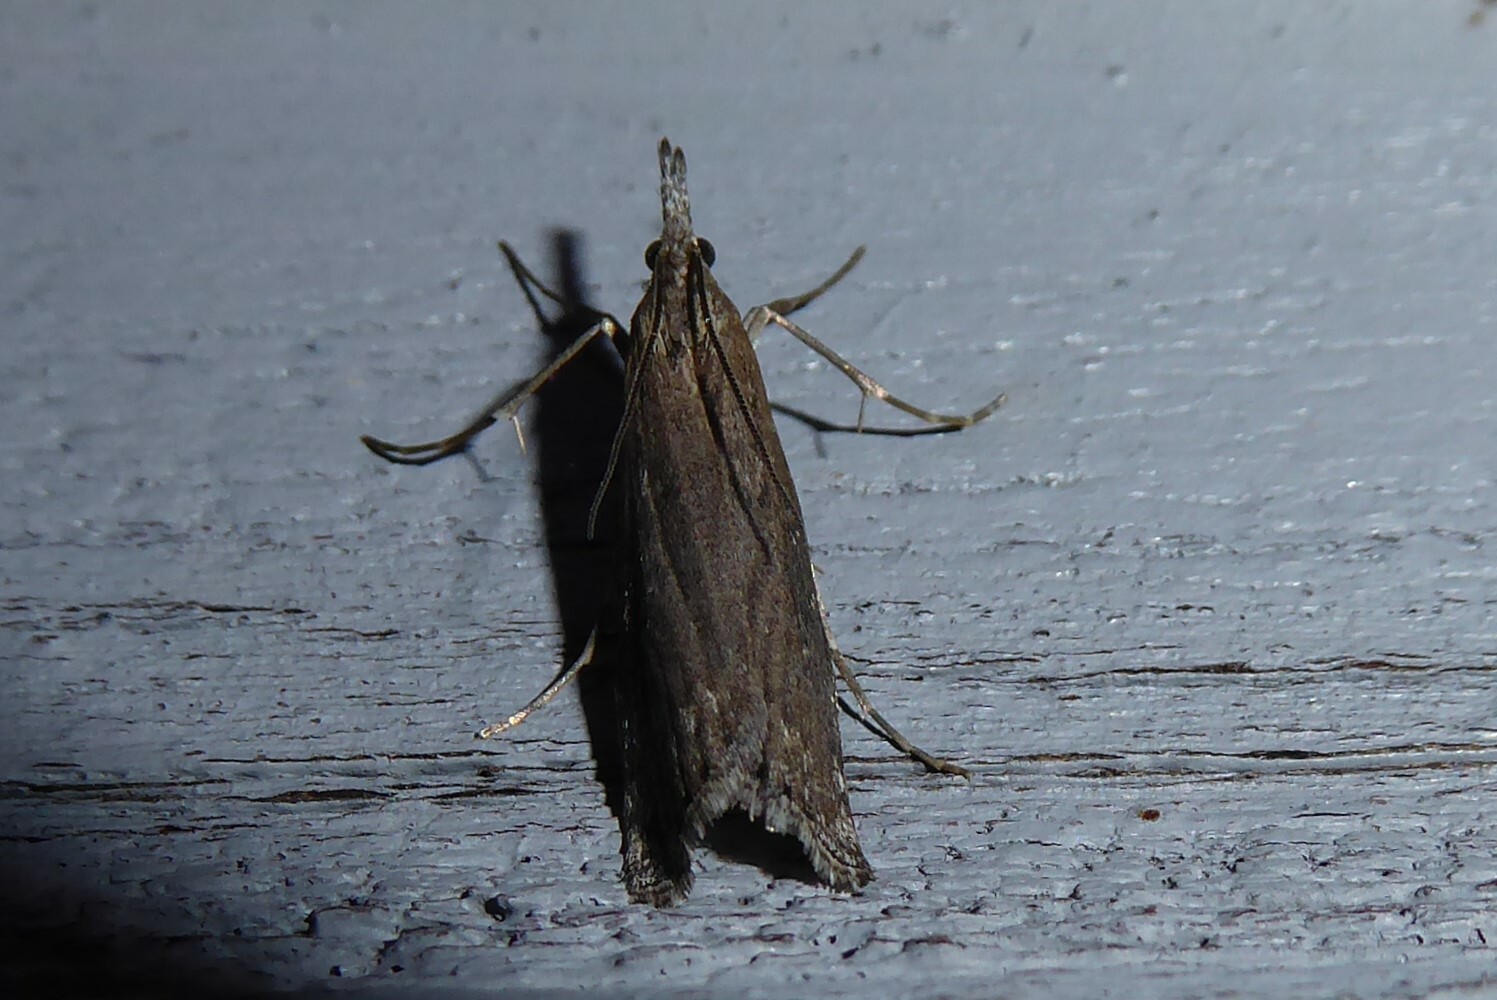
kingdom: Animalia
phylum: Arthropoda
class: Insecta
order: Lepidoptera
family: Crambidae
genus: Orocrambus
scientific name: Orocrambus cyclopicus
